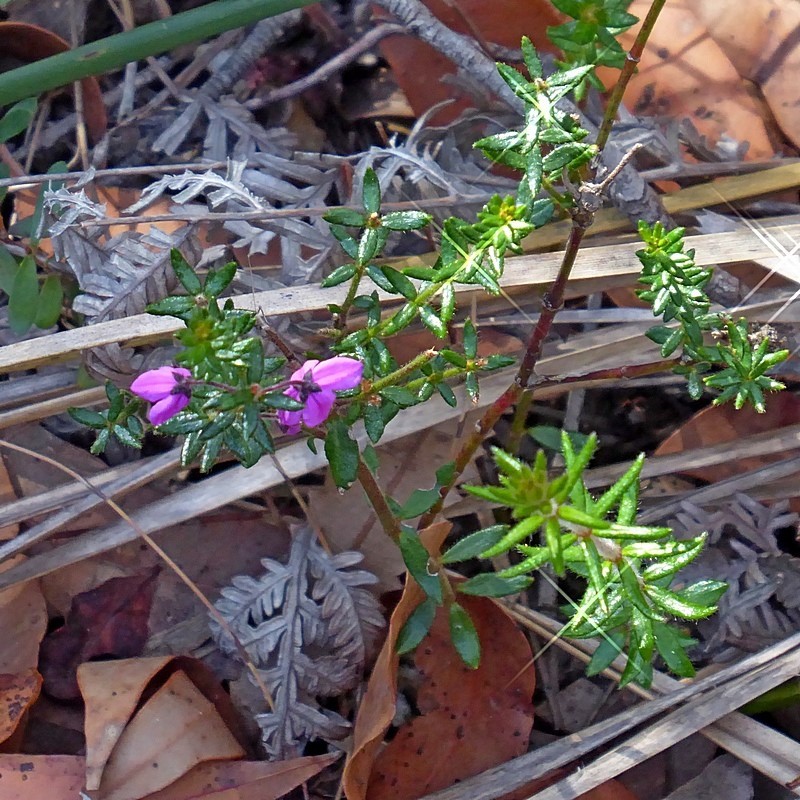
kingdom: Plantae
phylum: Tracheophyta
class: Magnoliopsida
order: Oxalidales
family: Elaeocarpaceae
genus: Tetratheca
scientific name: Tetratheca thymifolia
